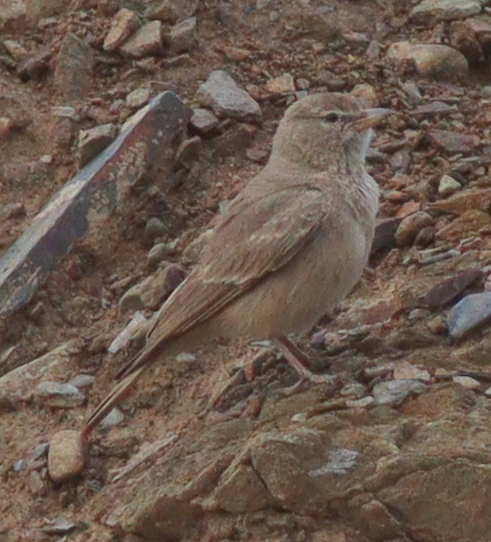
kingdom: Animalia
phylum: Chordata
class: Aves
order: Passeriformes
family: Alaudidae
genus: Ammomanes
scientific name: Ammomanes deserti
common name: Desert lark
